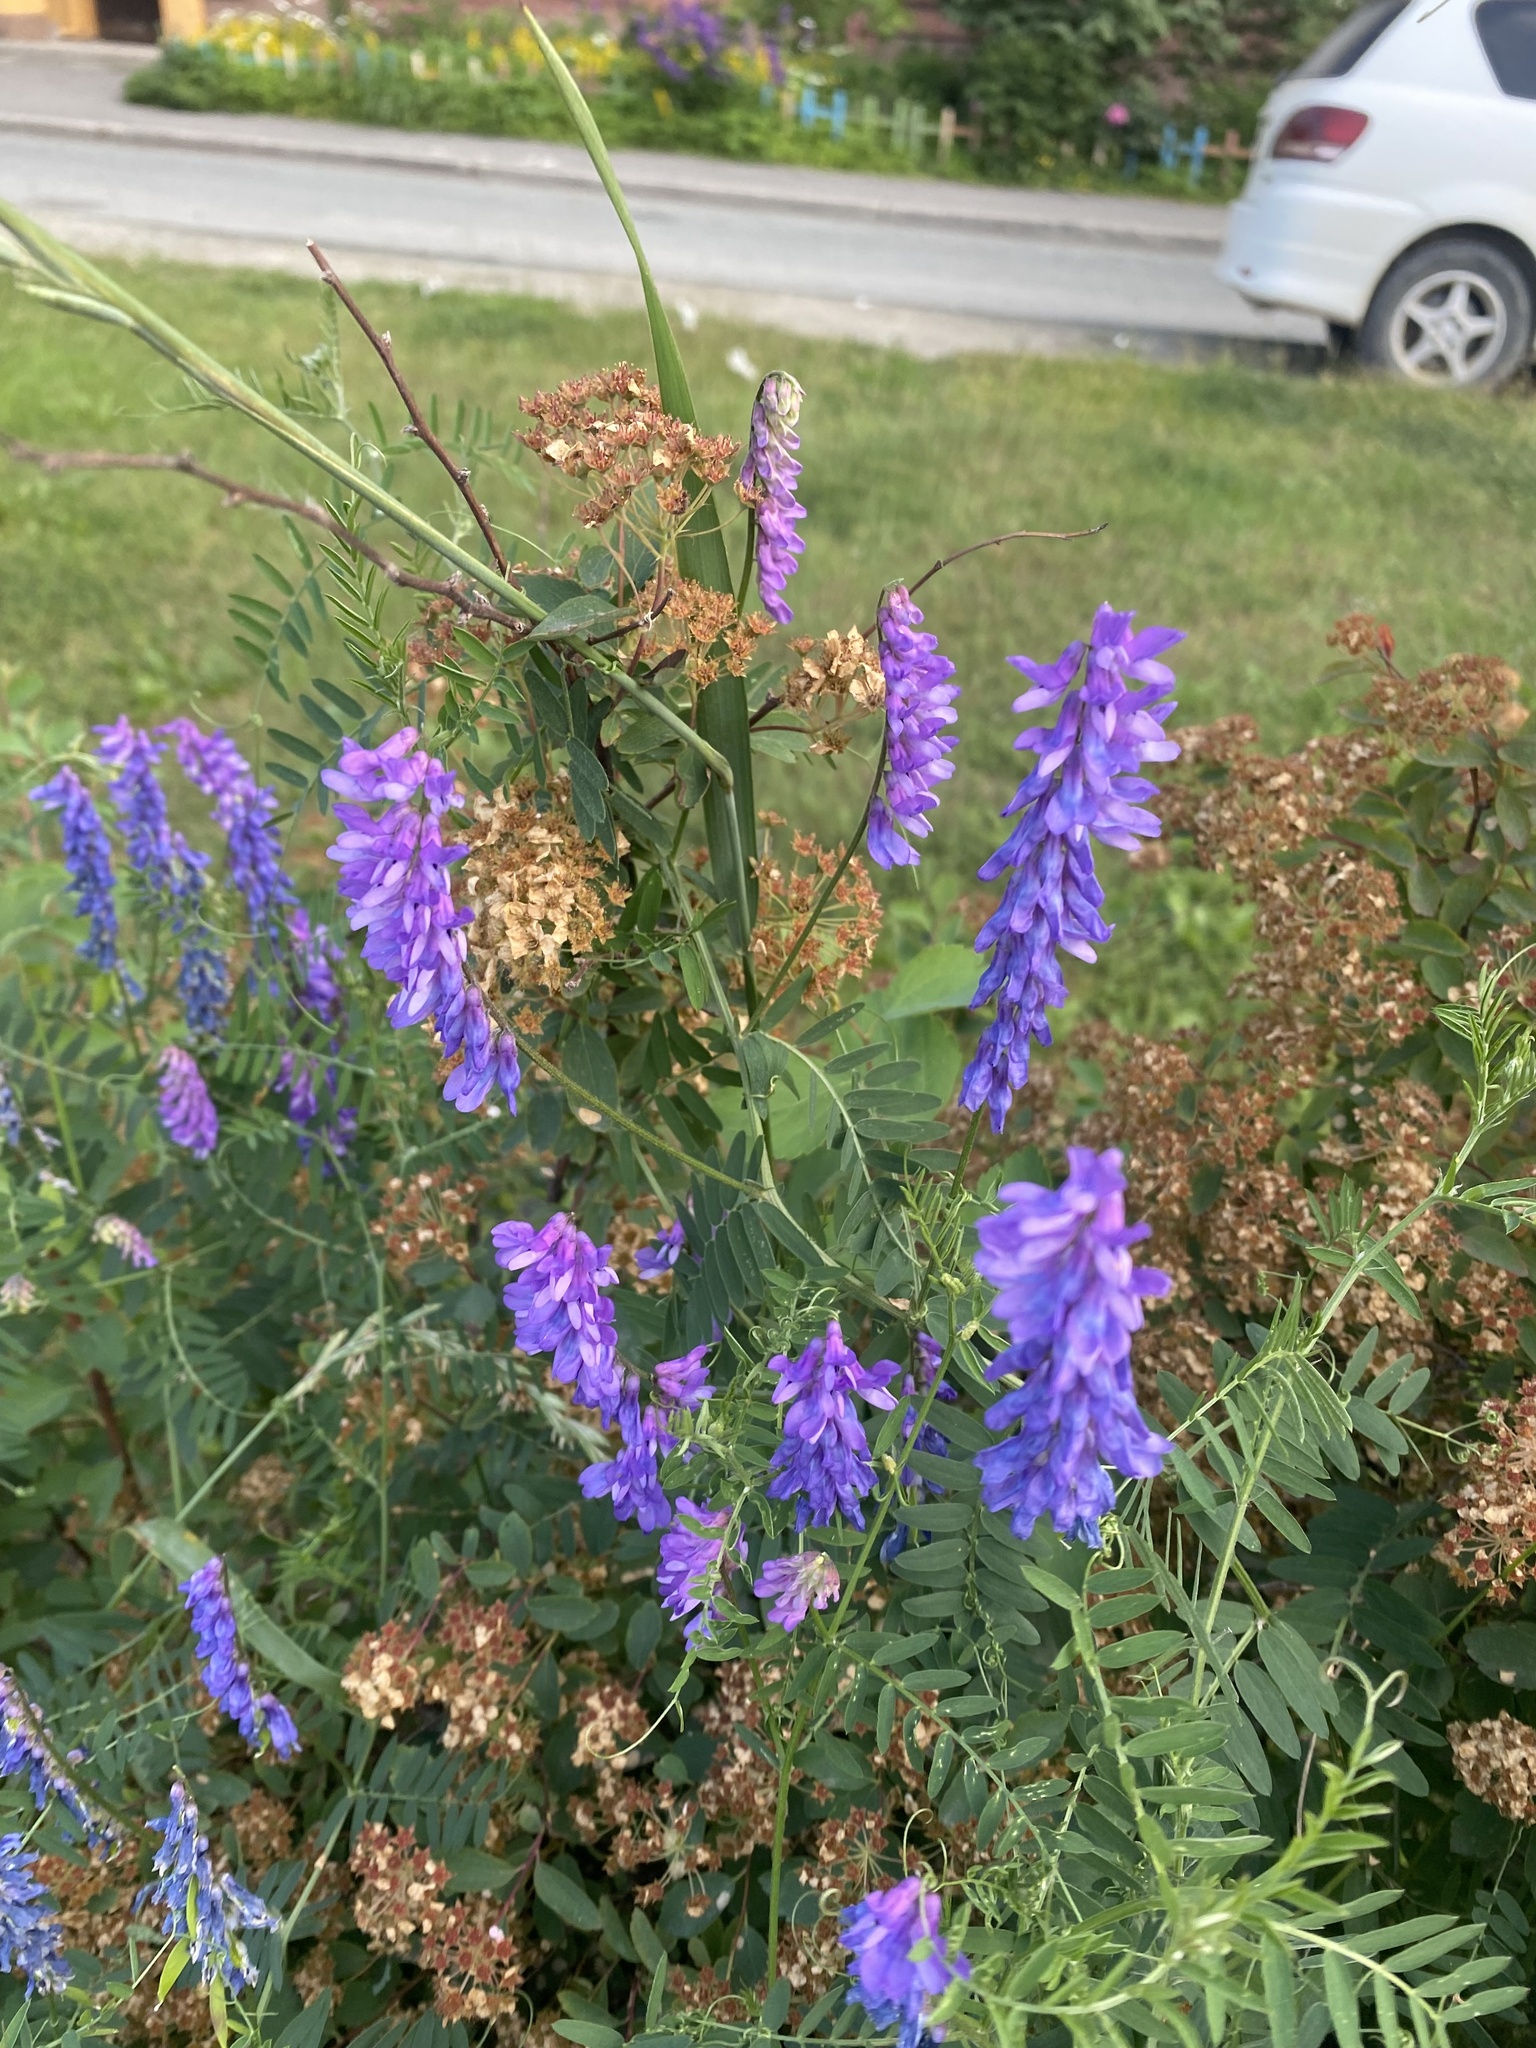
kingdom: Plantae
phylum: Tracheophyta
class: Magnoliopsida
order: Fabales
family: Fabaceae
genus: Vicia
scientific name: Vicia cracca
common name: Bird vetch
